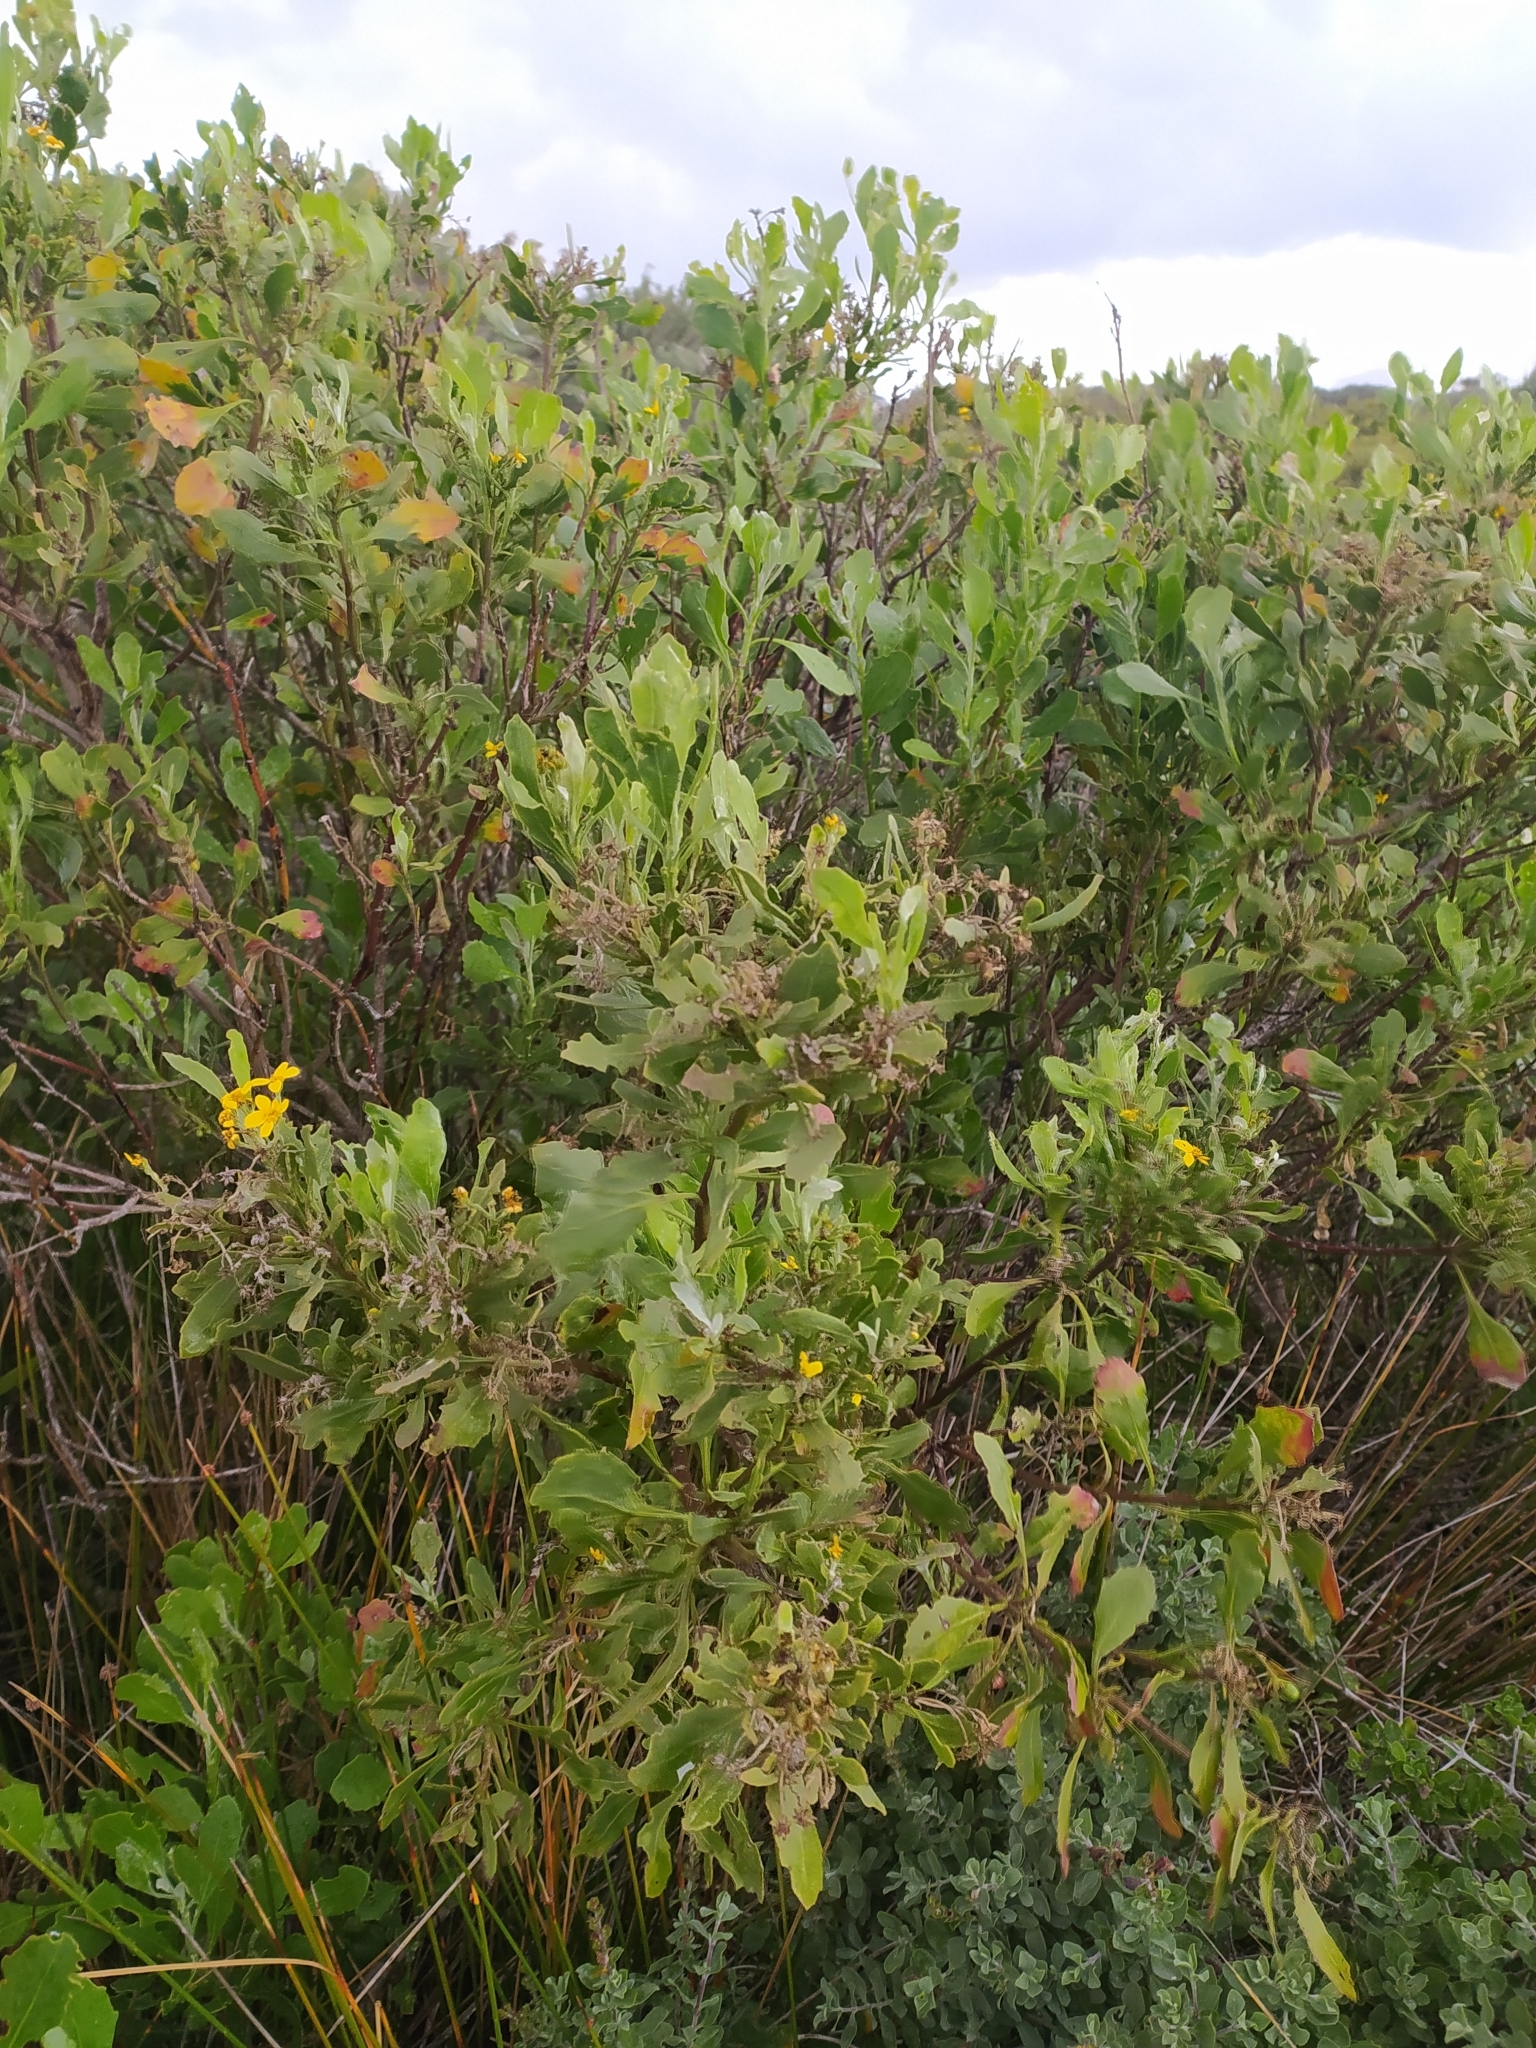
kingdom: Plantae
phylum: Tracheophyta
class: Magnoliopsida
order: Asterales
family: Asteraceae
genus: Osteospermum
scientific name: Osteospermum moniliferum
